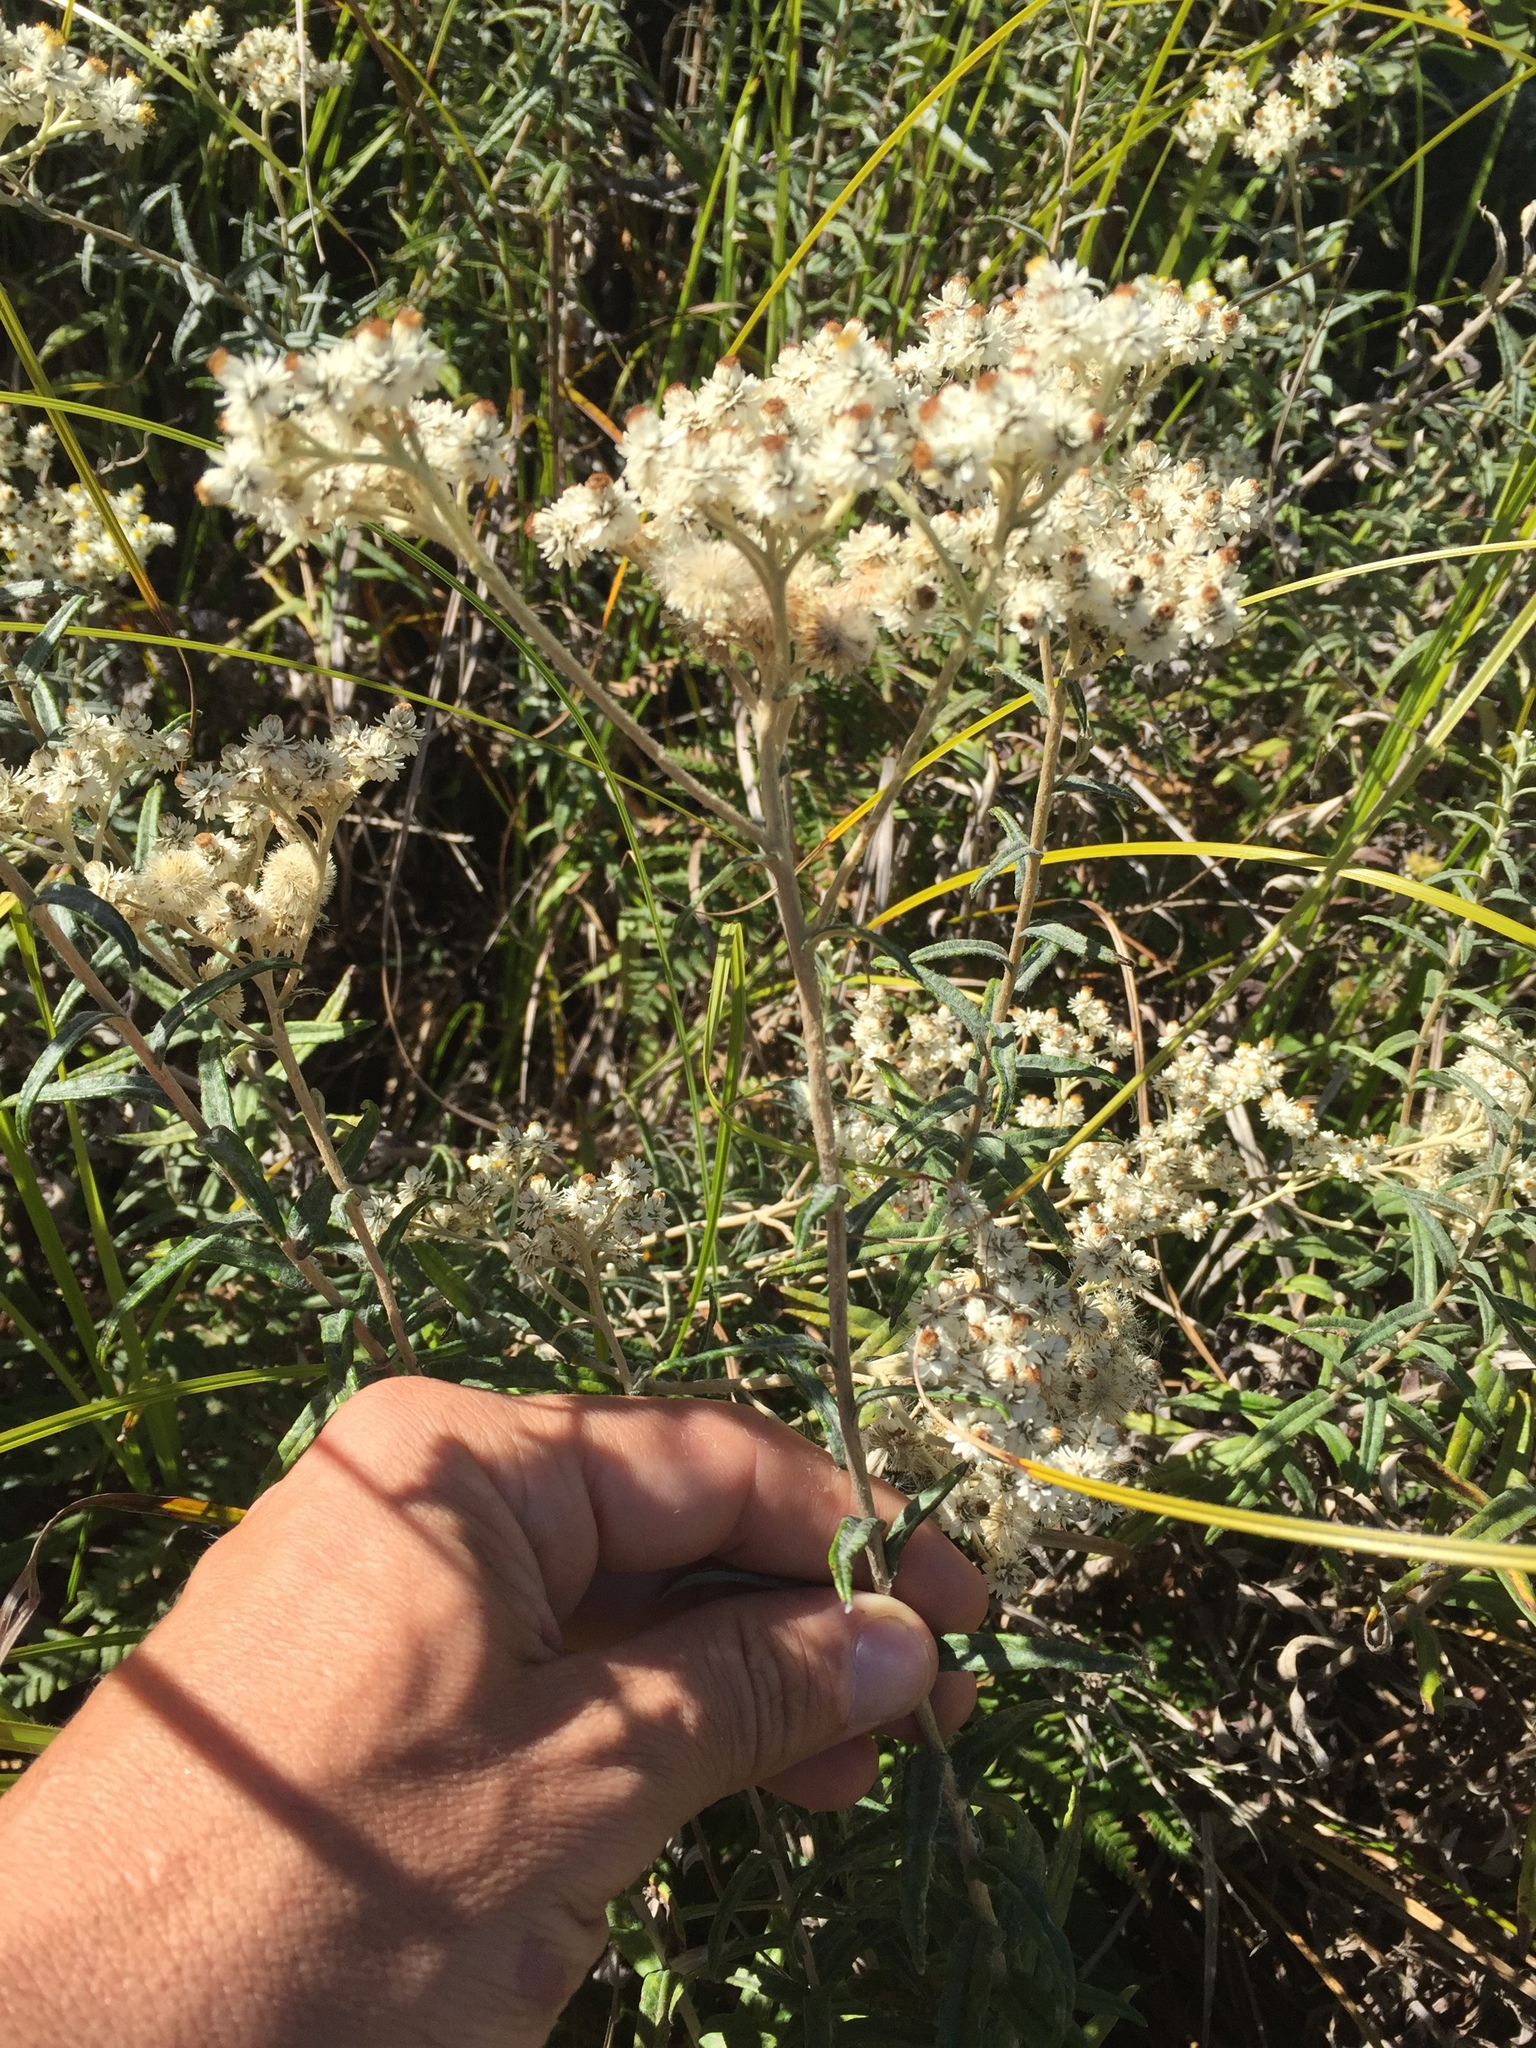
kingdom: Plantae
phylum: Tracheophyta
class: Magnoliopsida
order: Asterales
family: Asteraceae
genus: Anaphalis
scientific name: Anaphalis margaritacea
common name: Pearly everlasting
